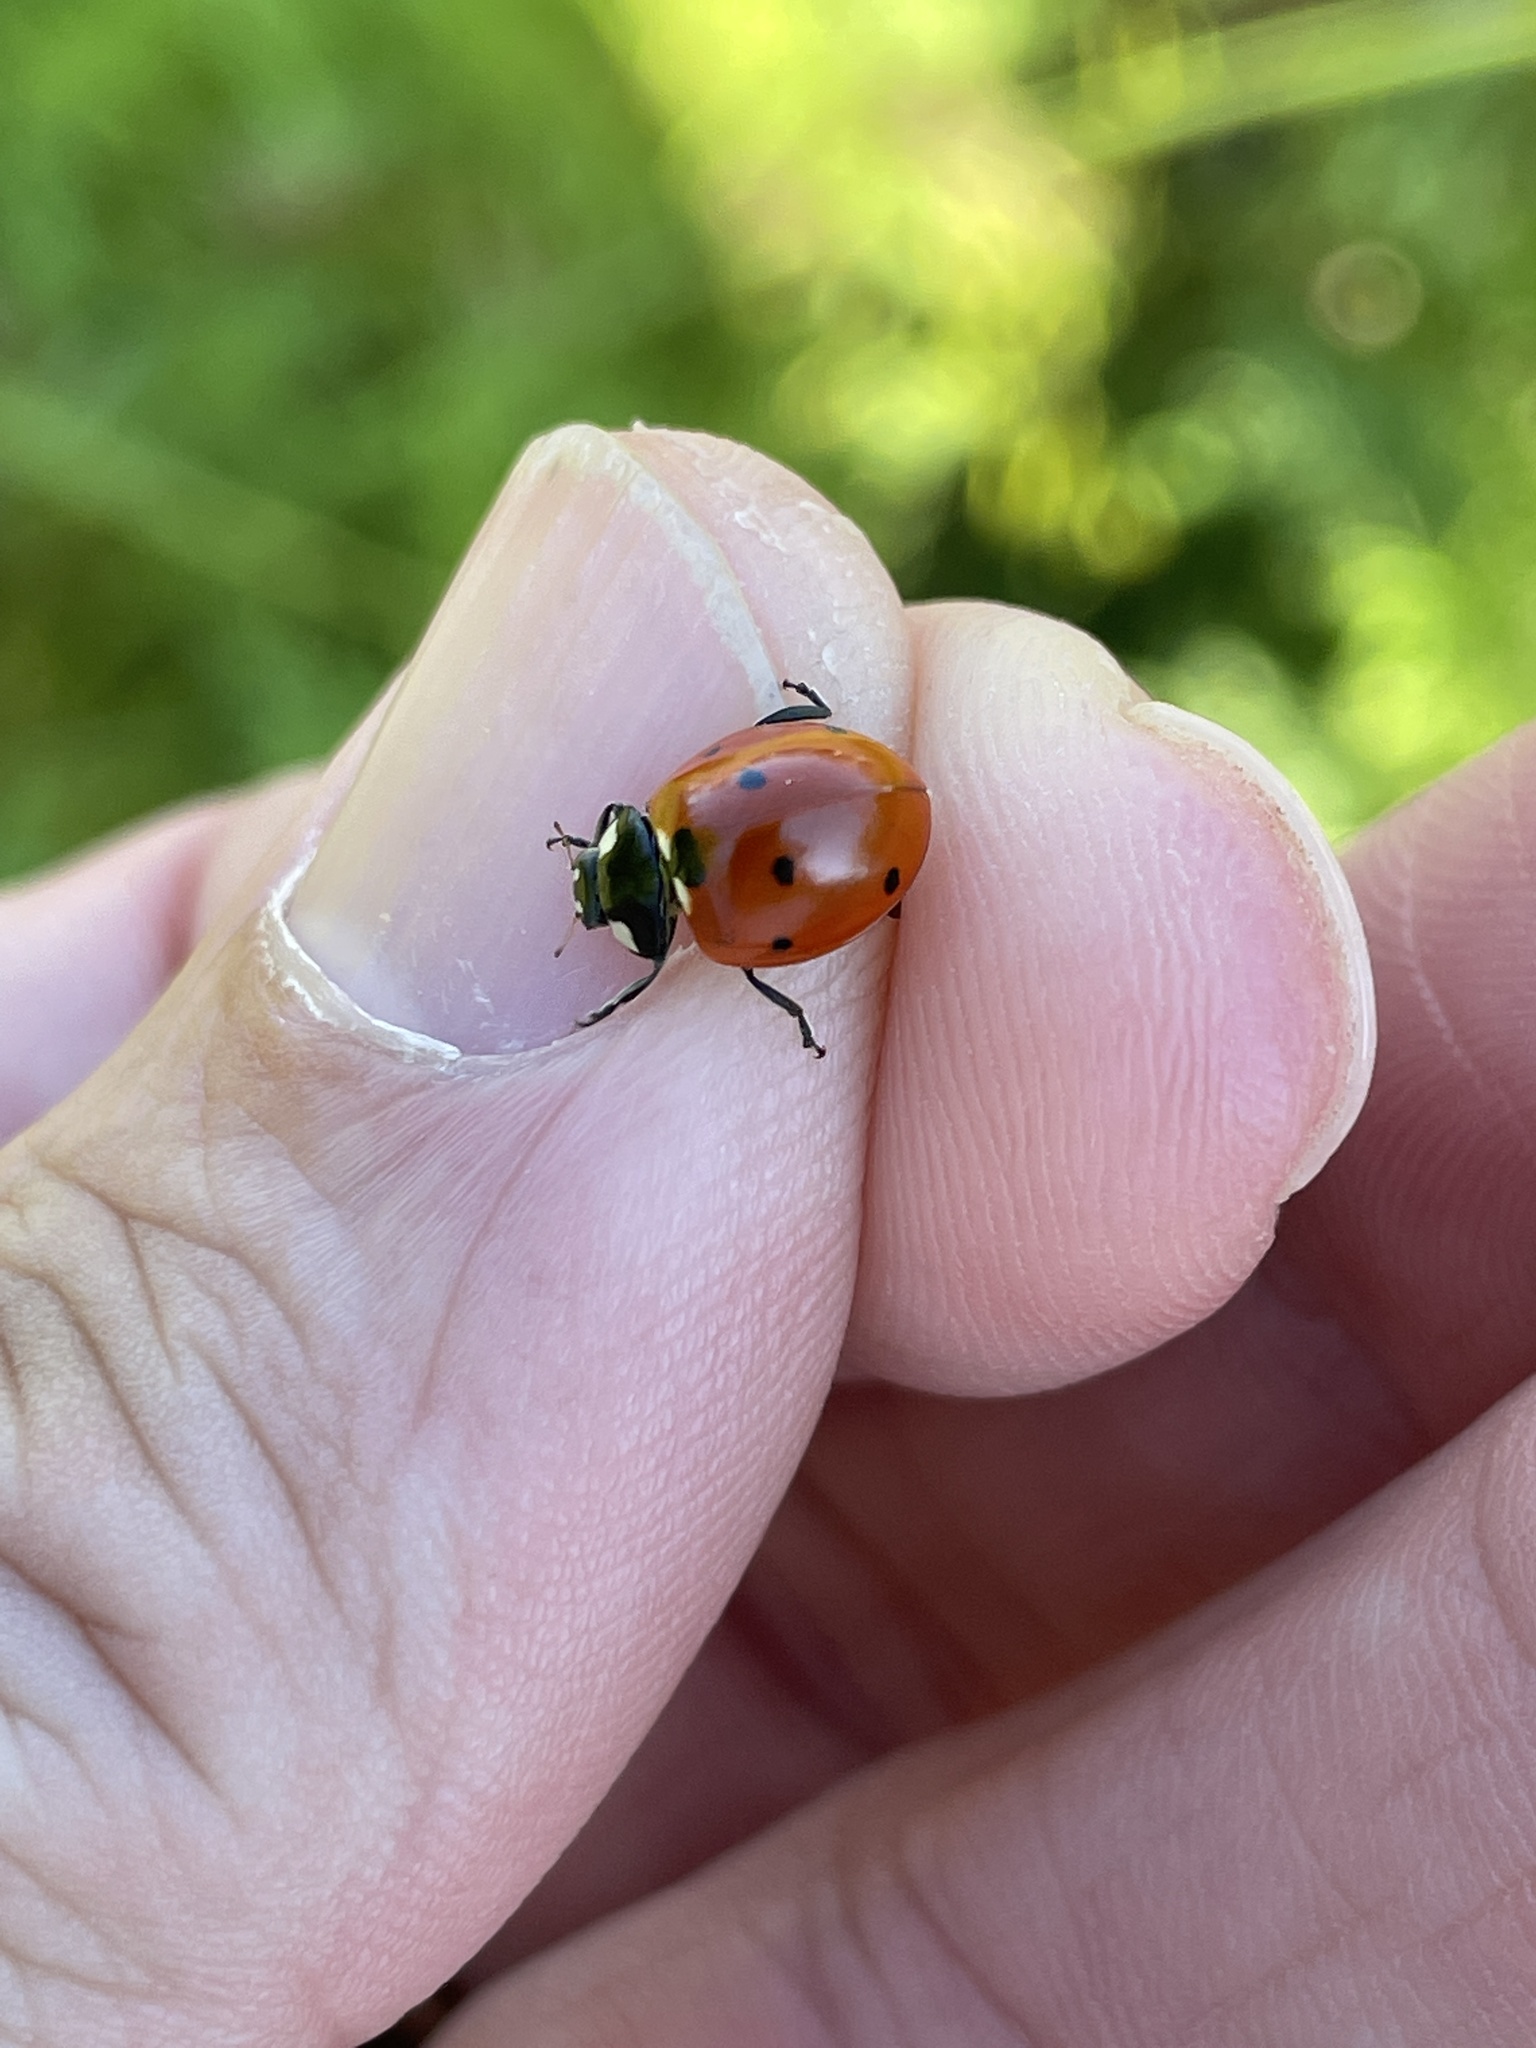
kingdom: Animalia
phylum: Arthropoda
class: Insecta
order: Coleoptera
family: Coccinellidae
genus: Coccinella
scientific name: Coccinella septempunctata
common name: Sevenspotted lady beetle
